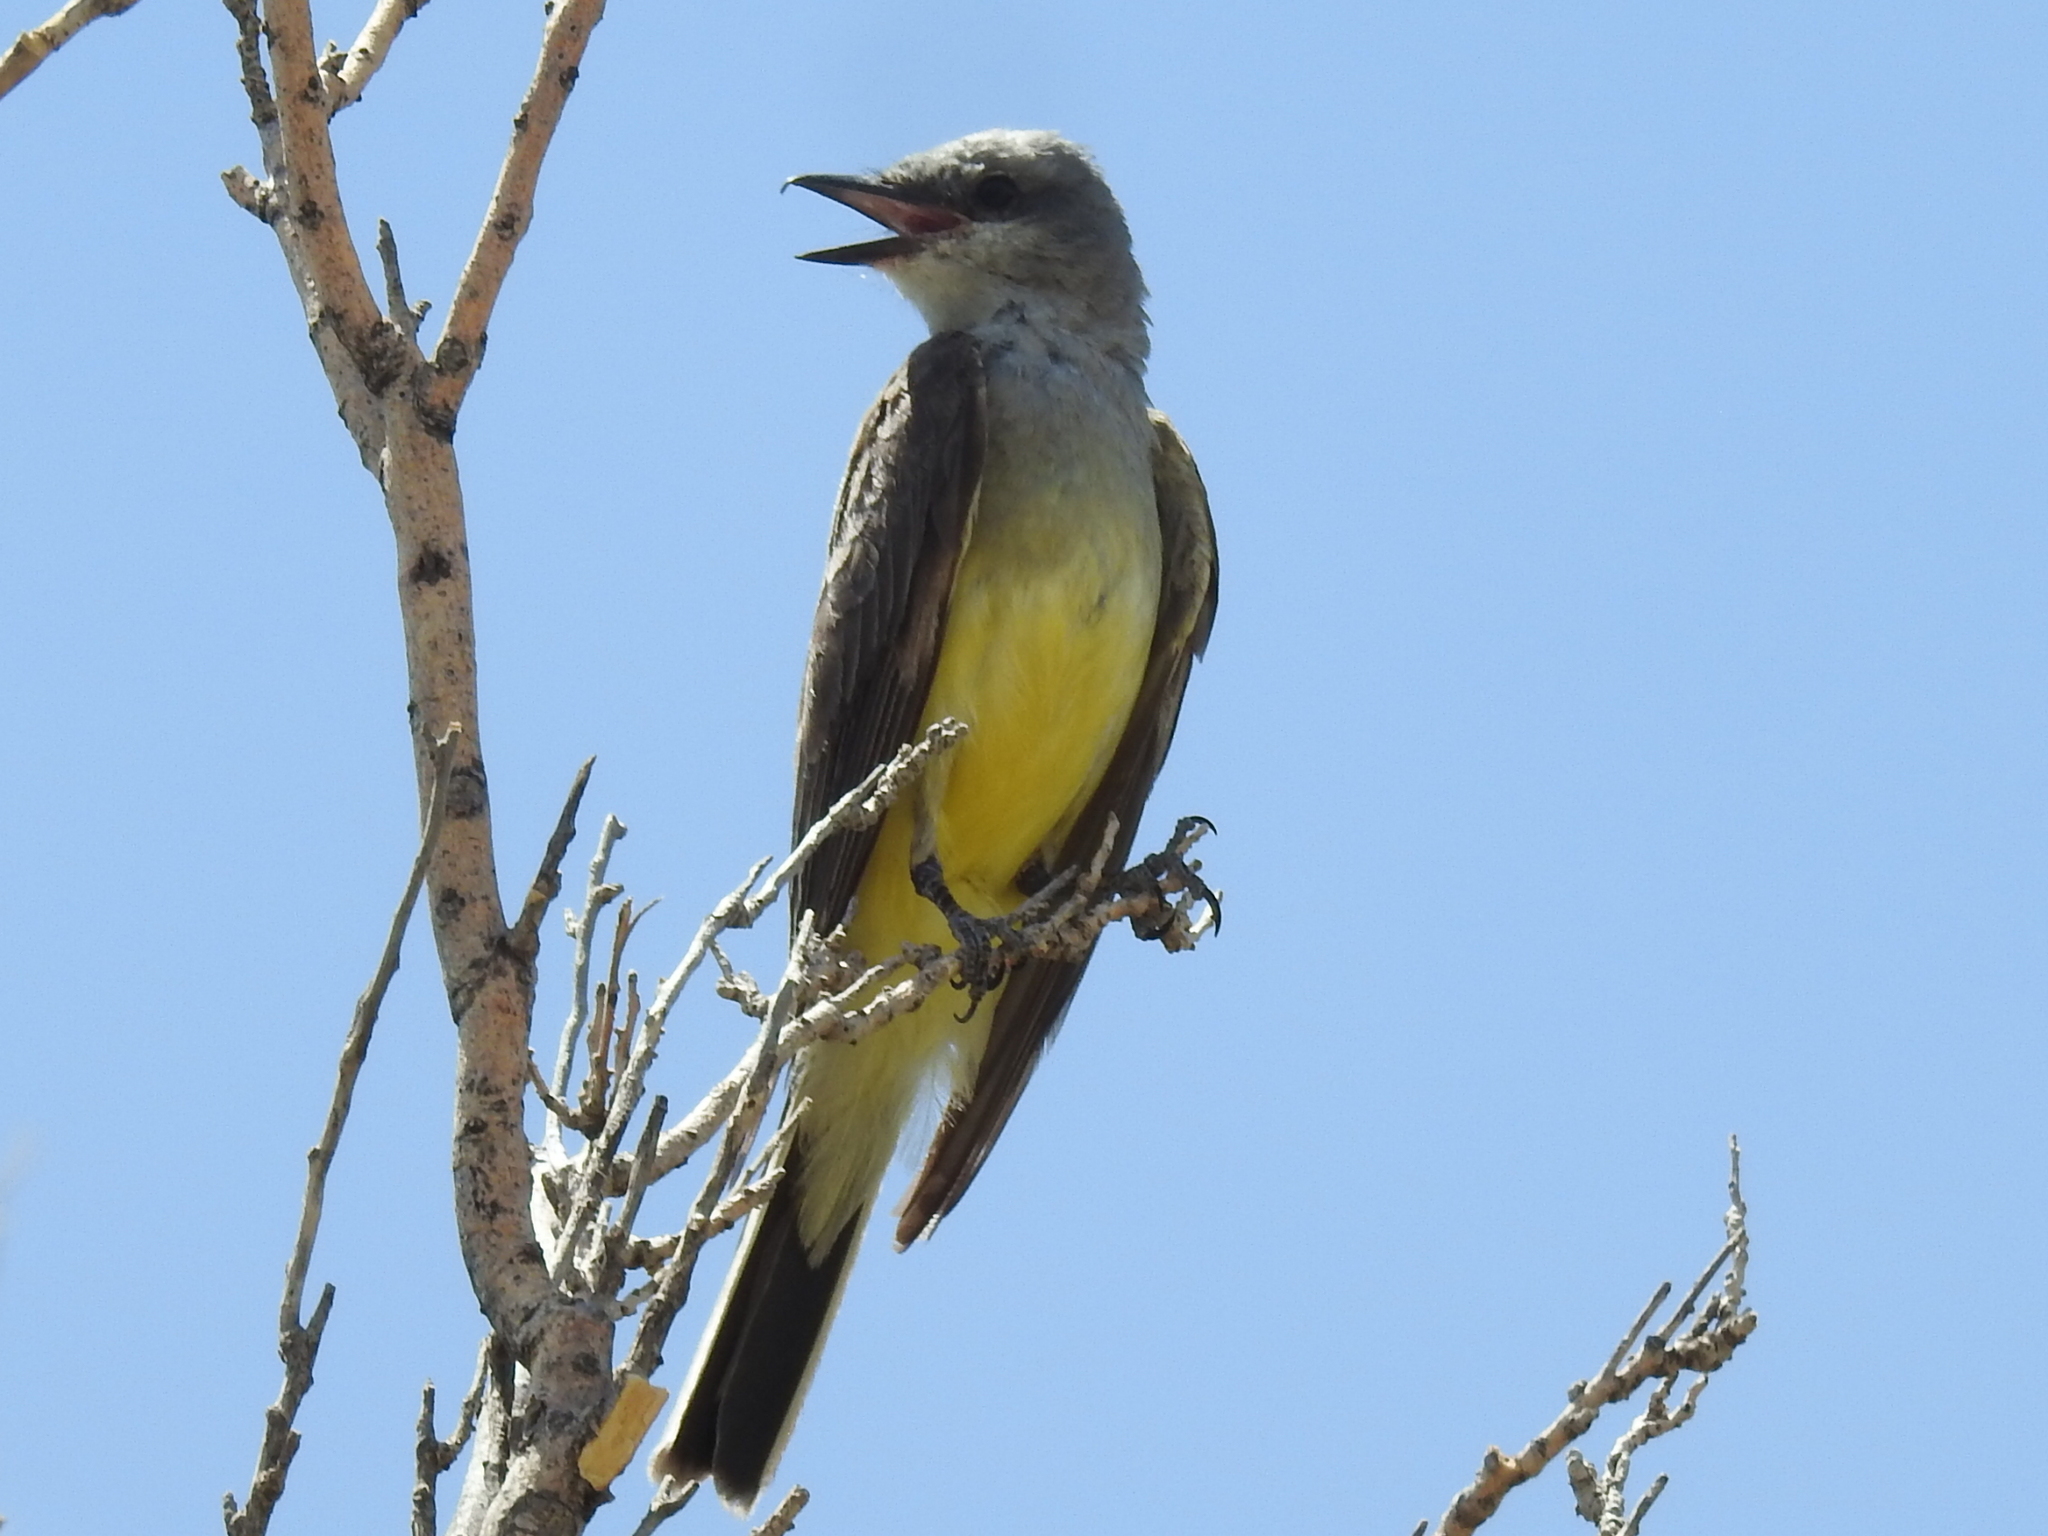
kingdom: Animalia
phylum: Chordata
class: Aves
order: Passeriformes
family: Tyrannidae
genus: Tyrannus
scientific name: Tyrannus verticalis
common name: Western kingbird
